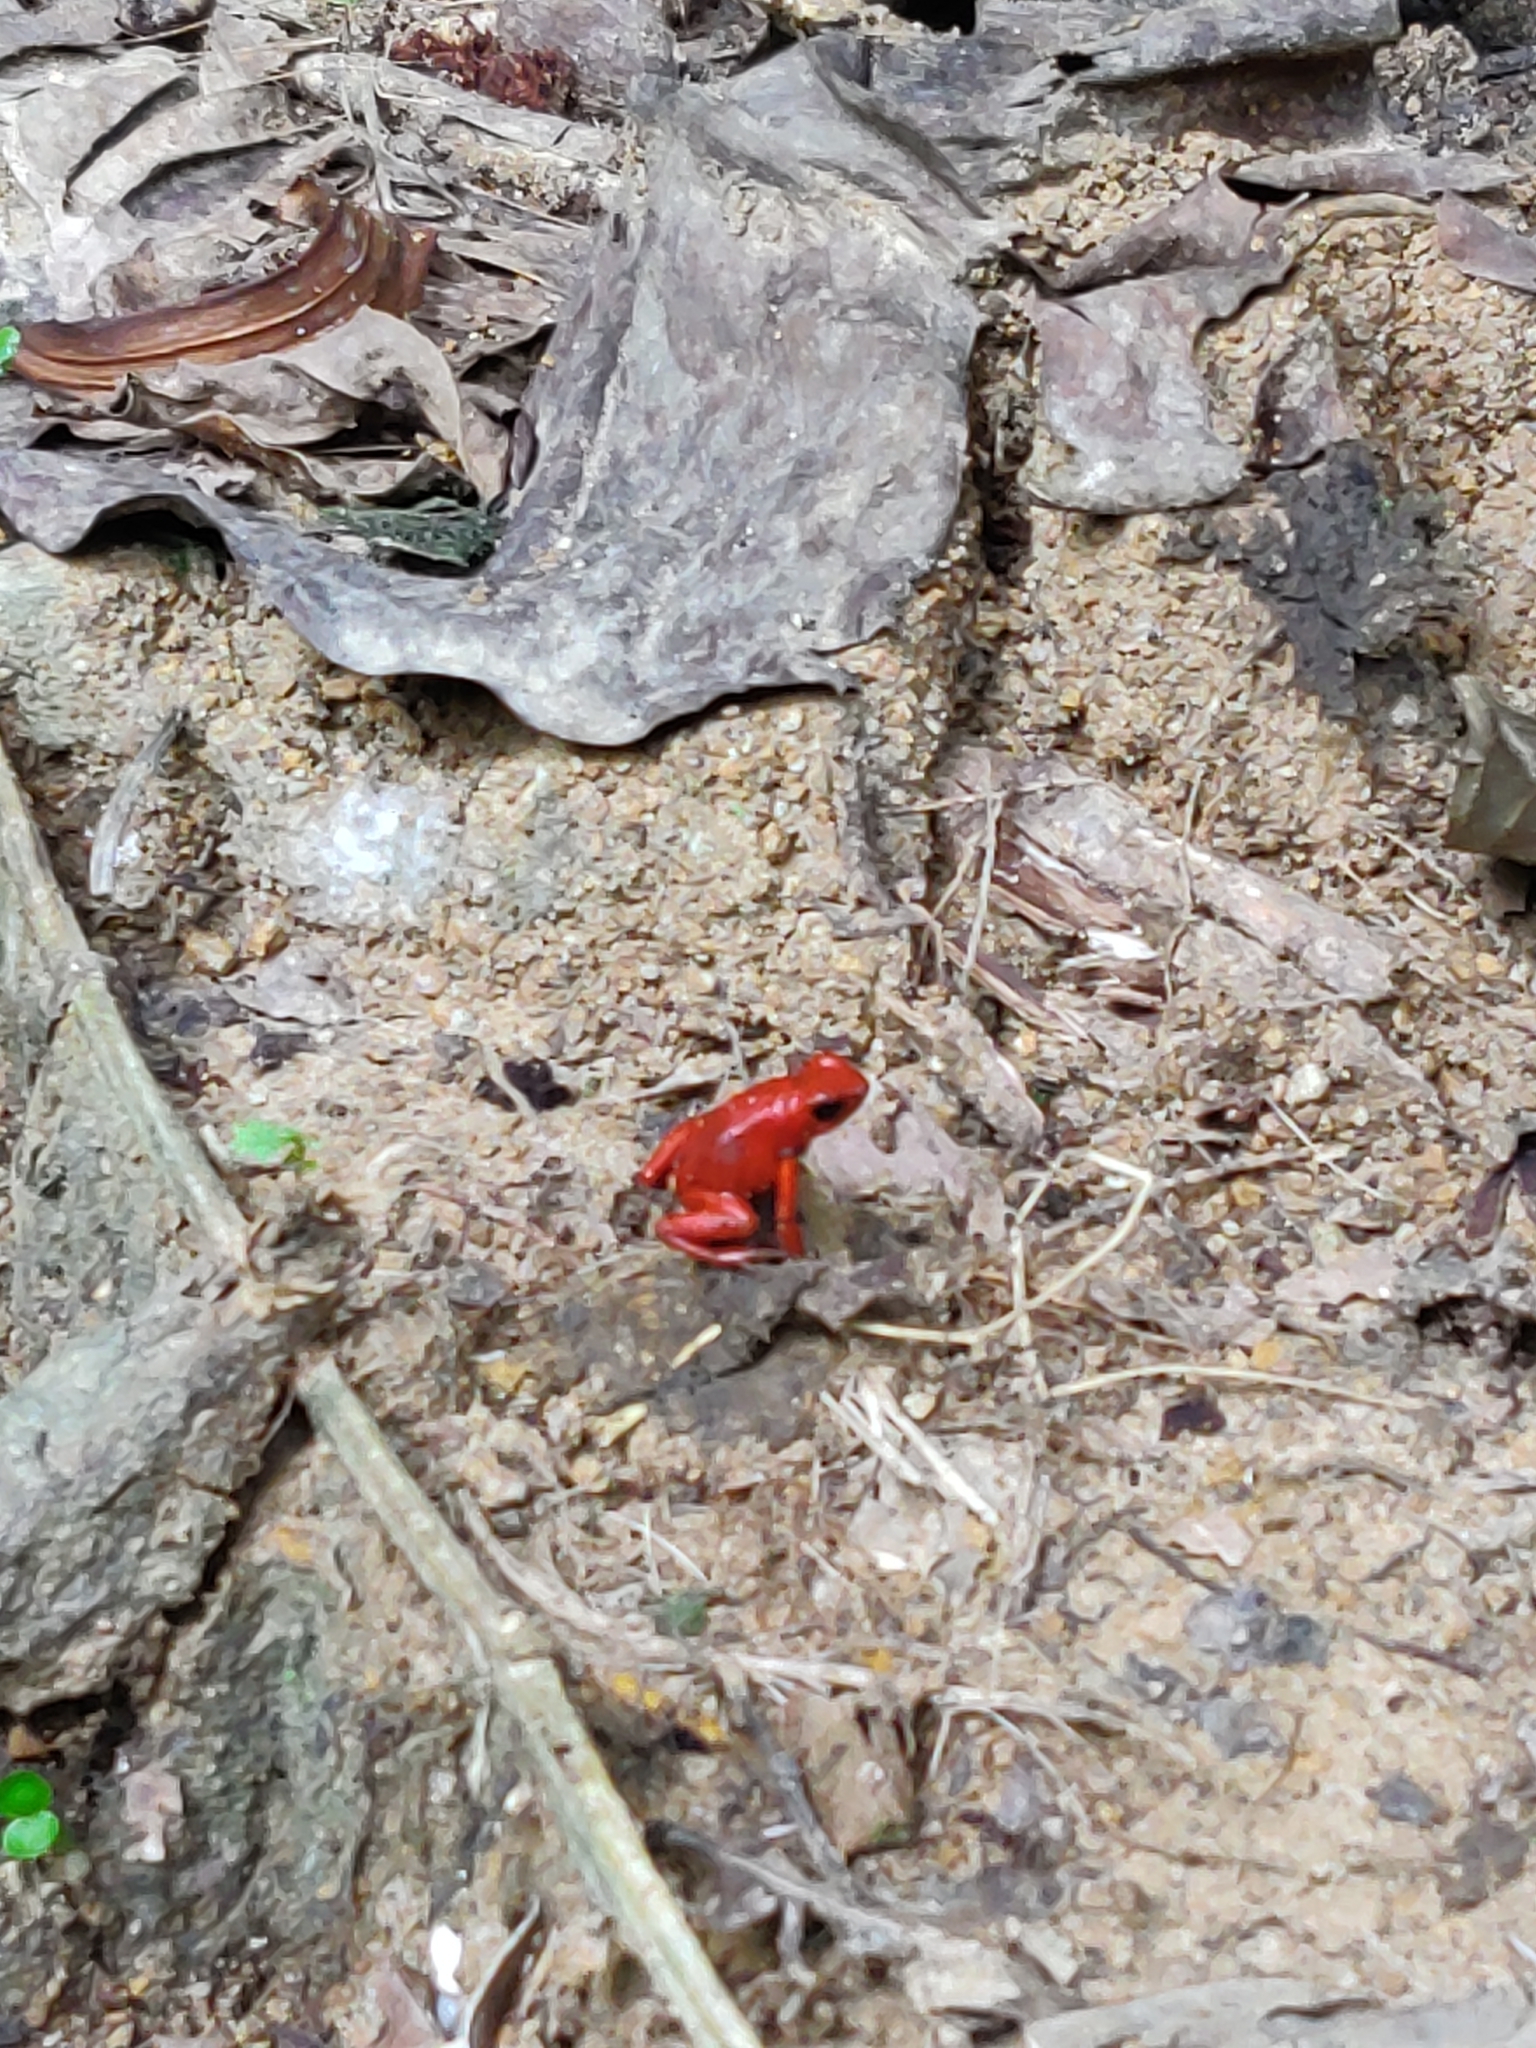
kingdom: Animalia
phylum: Chordata
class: Amphibia
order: Anura
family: Dendrobatidae
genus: Oophaga
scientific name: Oophaga pumilio
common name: Flaming poison frog
